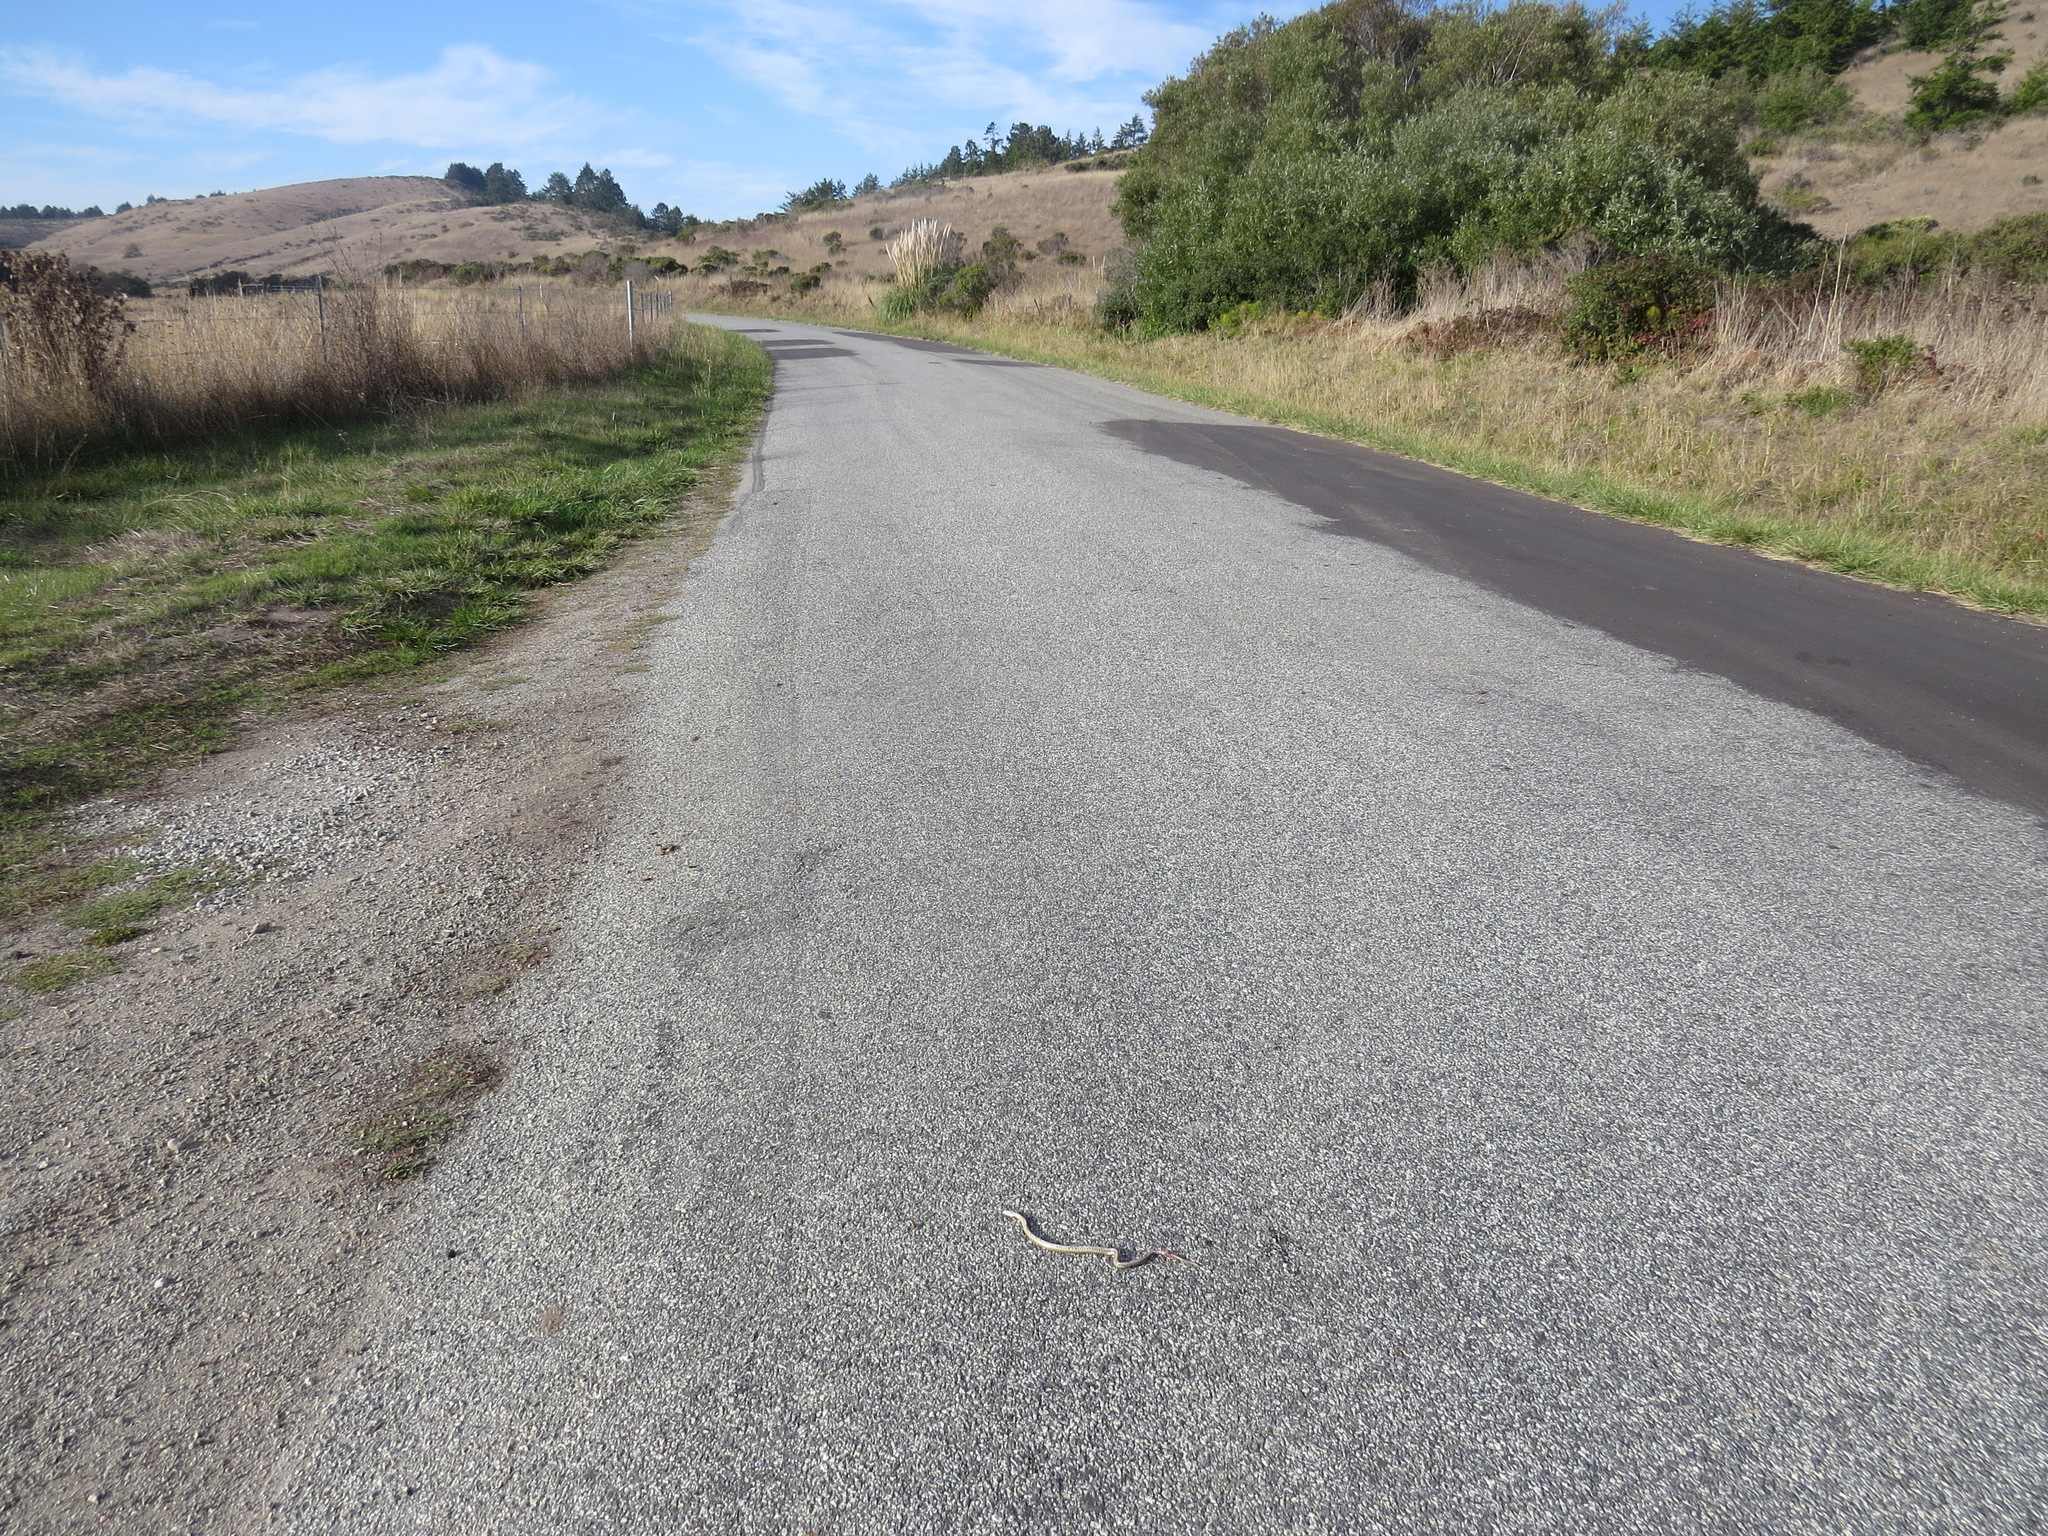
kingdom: Animalia
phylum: Chordata
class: Squamata
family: Colubridae
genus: Pituophis
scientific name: Pituophis catenifer
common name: Gopher snake
